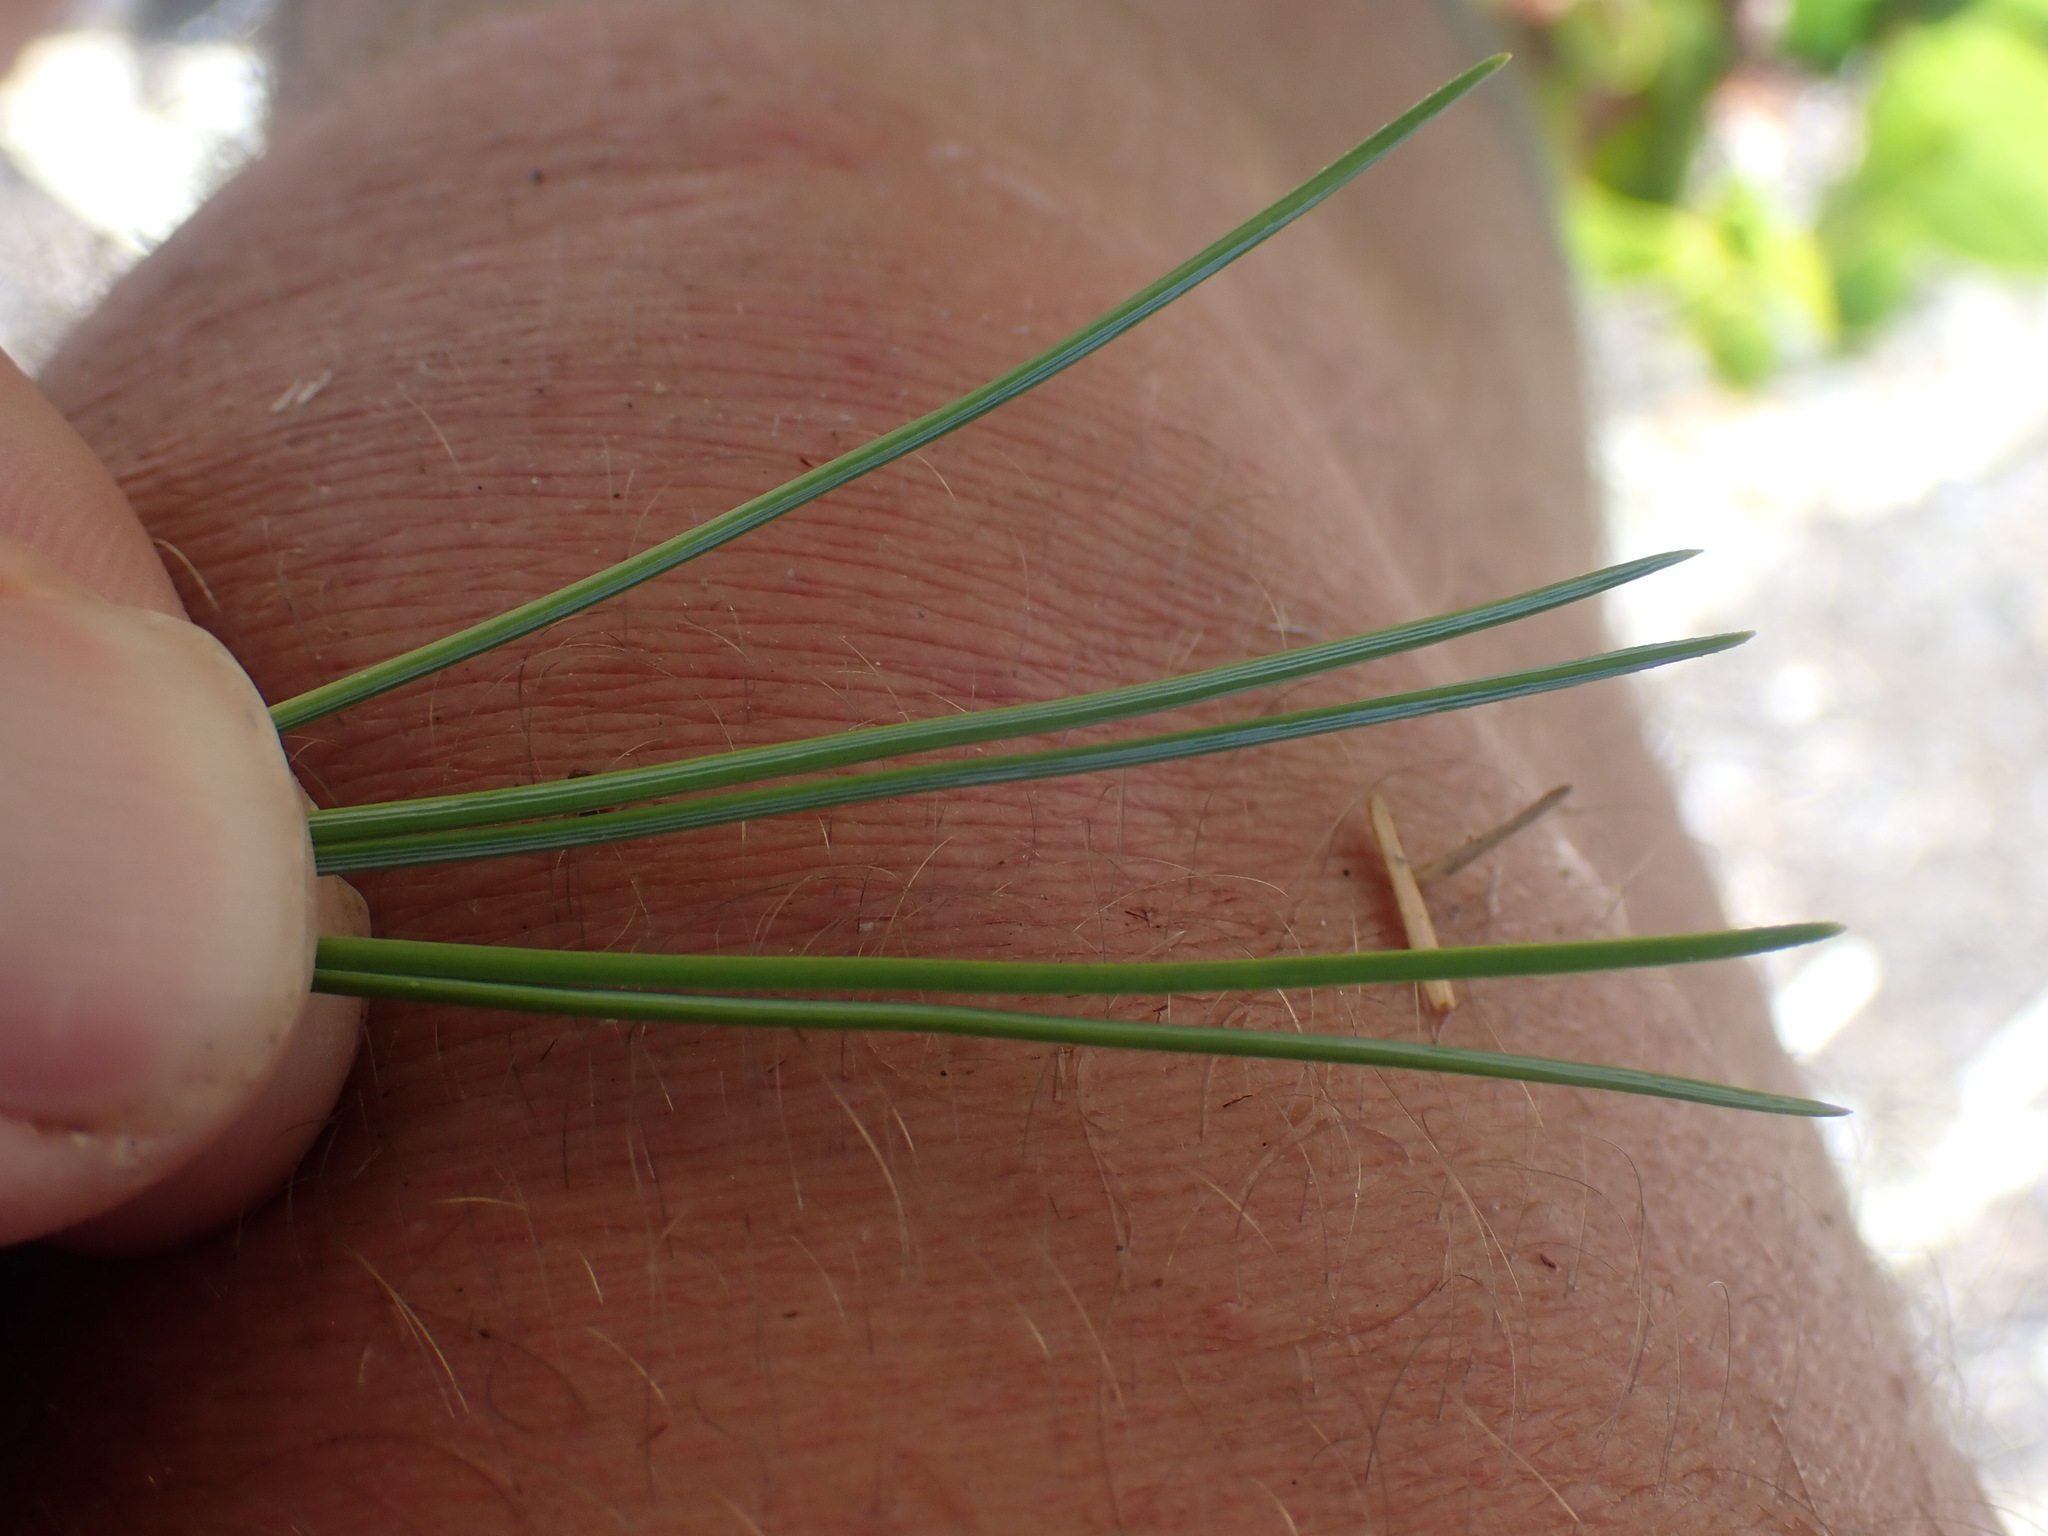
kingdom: Plantae
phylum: Tracheophyta
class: Pinopsida
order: Pinales
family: Pinaceae
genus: Pinus
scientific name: Pinus monticola
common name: Western white pine
